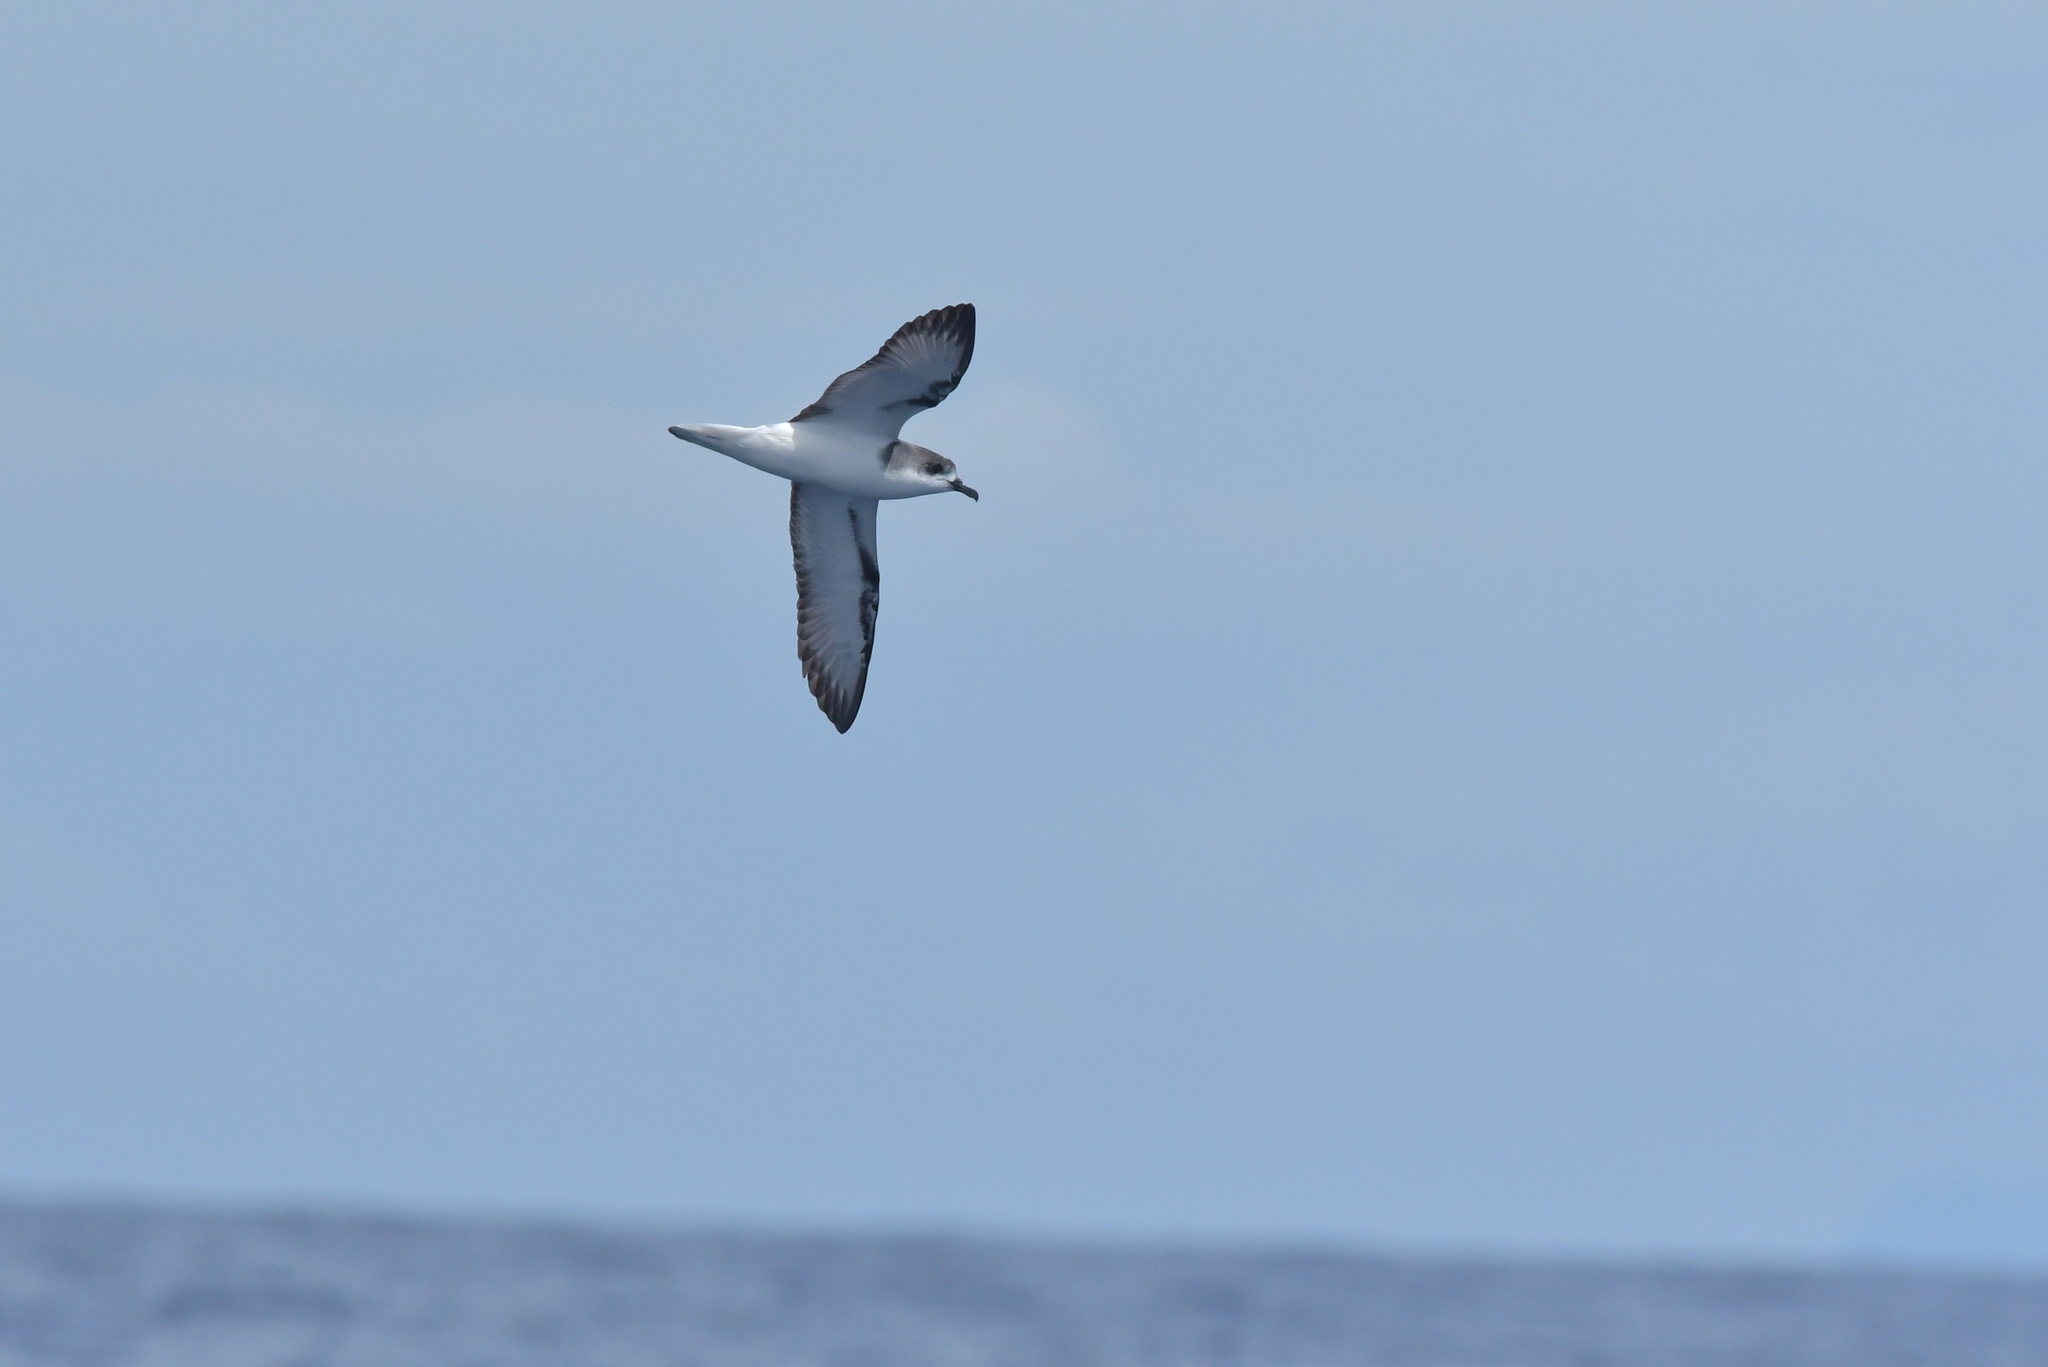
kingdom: Animalia
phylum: Chordata
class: Aves
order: Procellariiformes
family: Procellariidae
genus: Pterodroma
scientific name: Pterodroma cookii
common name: Cook's petrel
